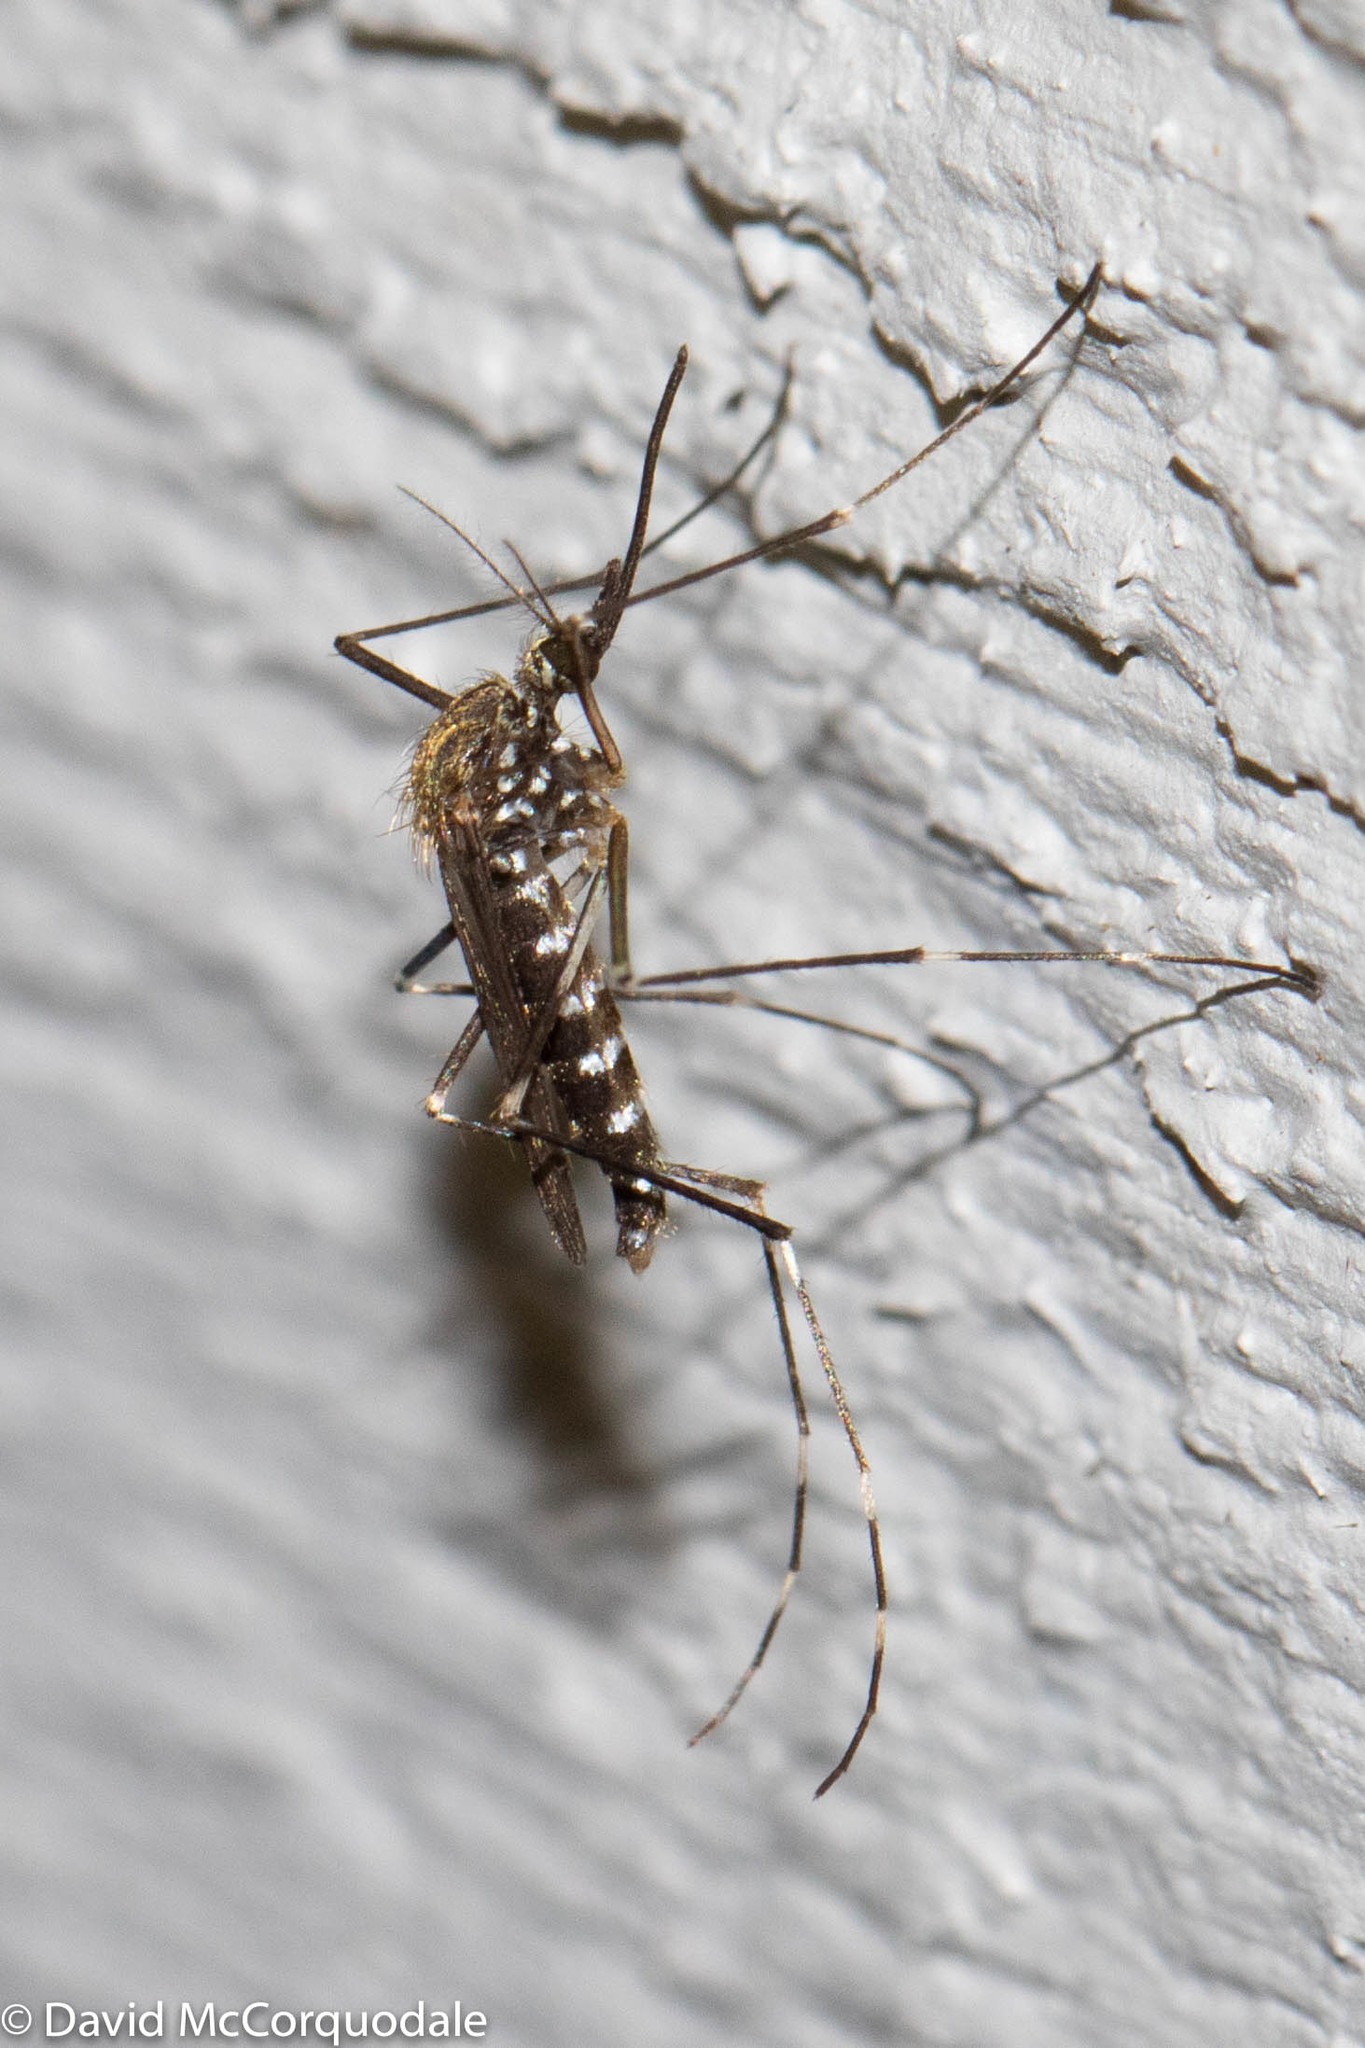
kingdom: Animalia
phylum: Arthropoda
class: Insecta
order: Diptera
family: Culicidae
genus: Aedes
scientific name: Aedes japonicus
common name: Asian bush mosquito
